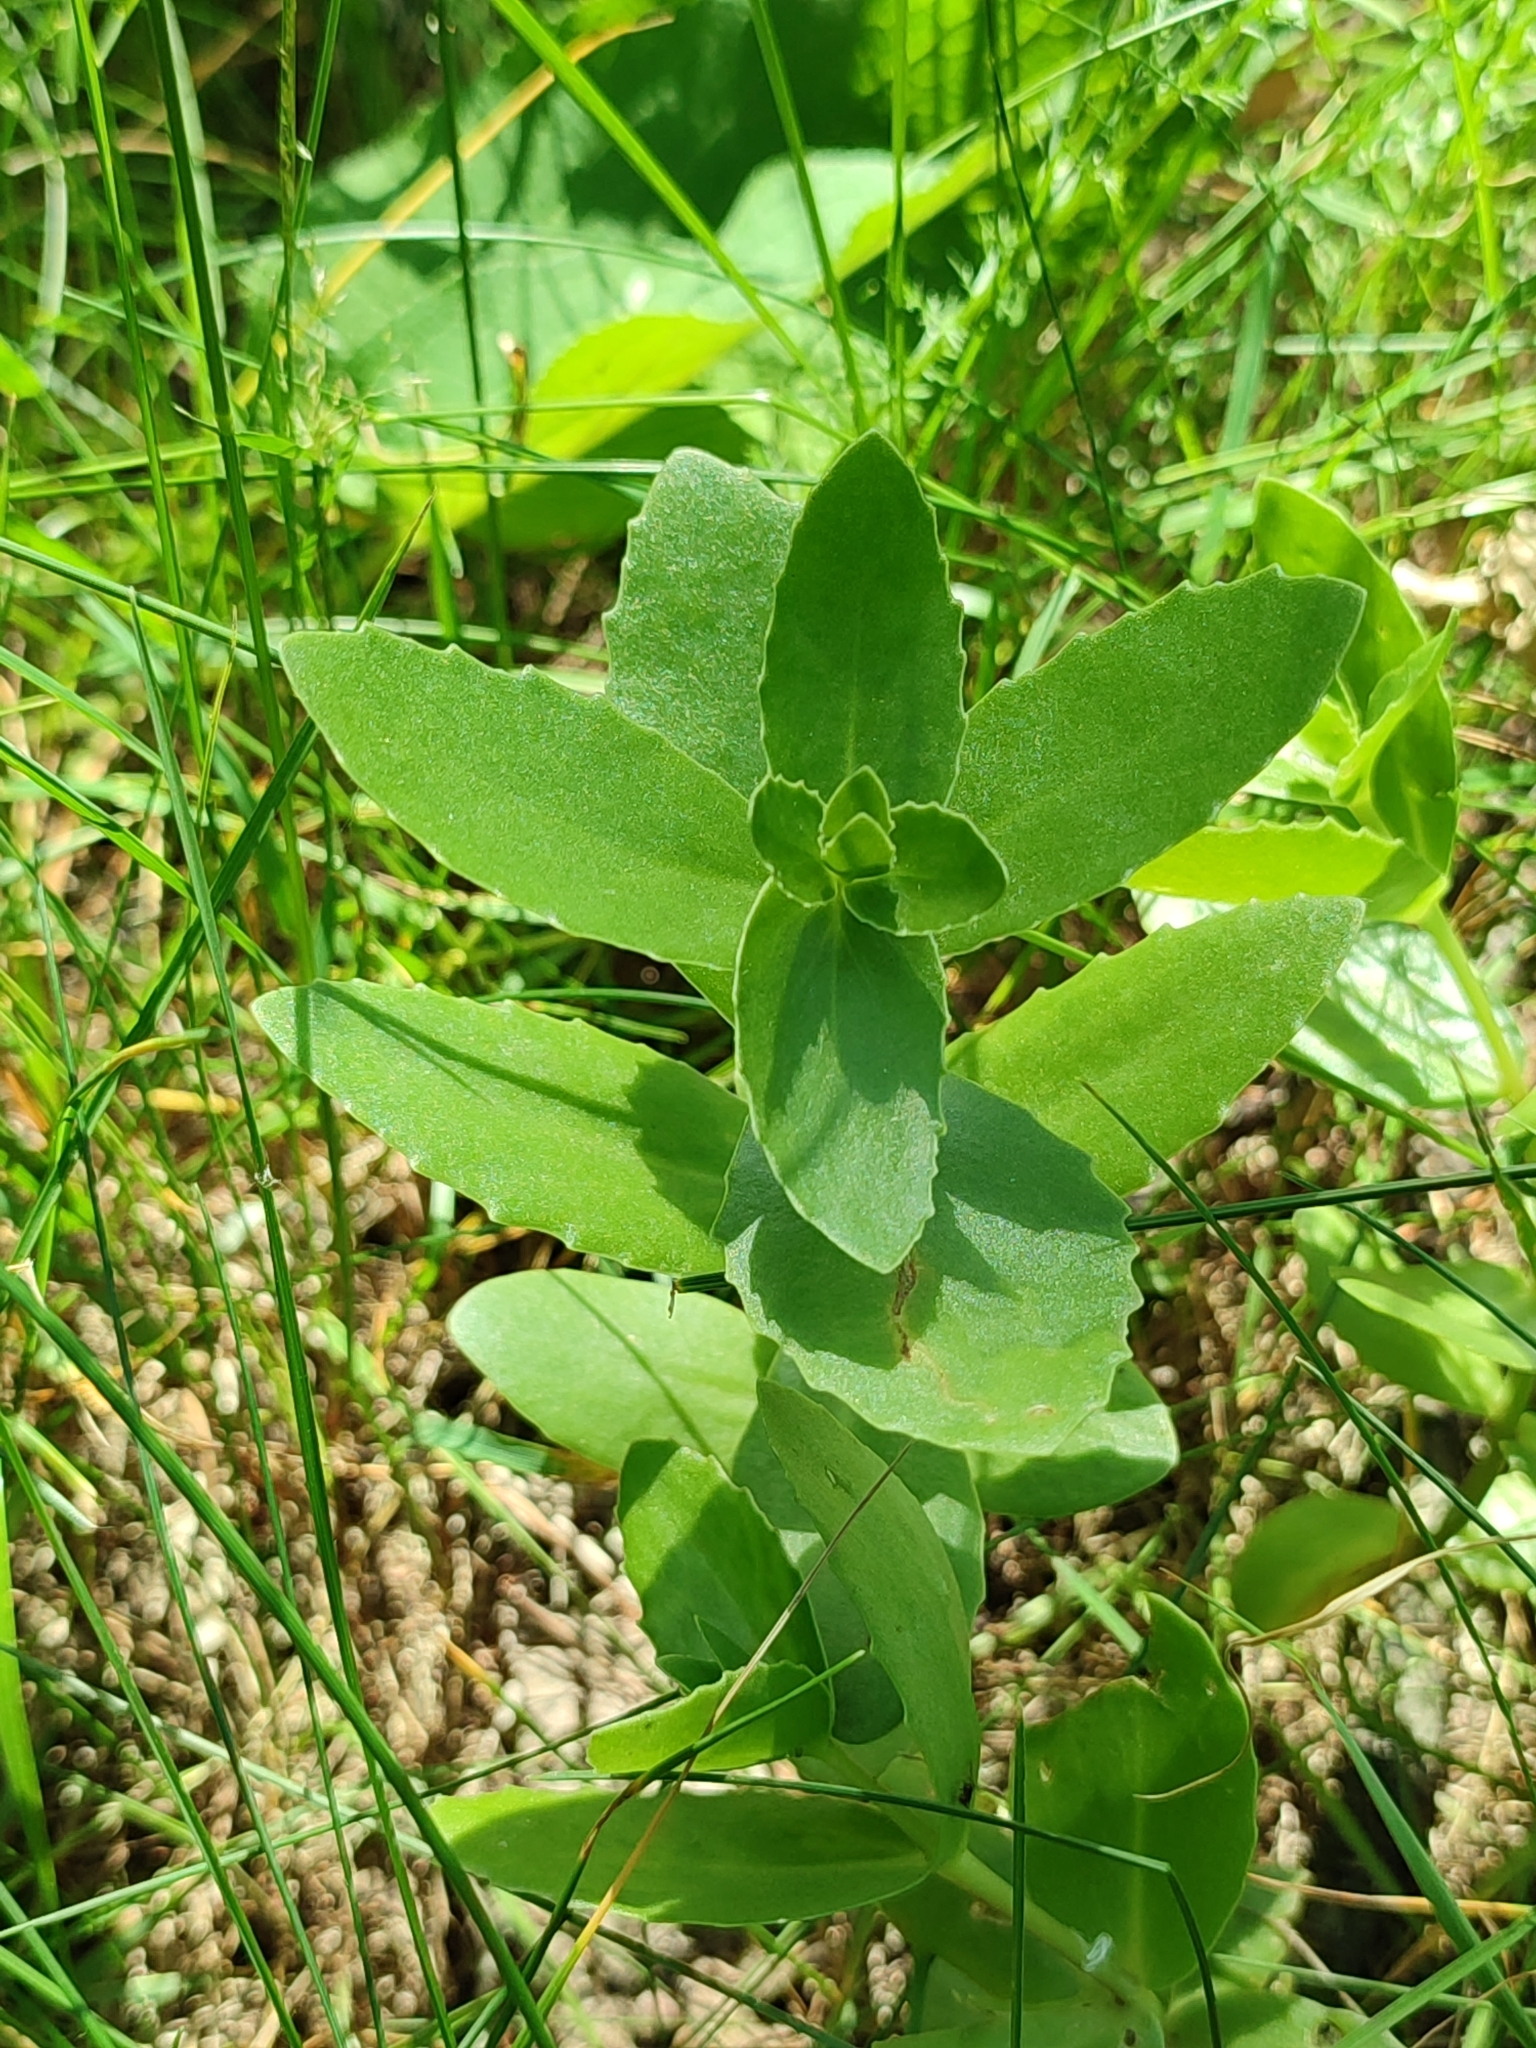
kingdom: Plantae
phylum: Tracheophyta
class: Magnoliopsida
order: Saxifragales
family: Crassulaceae
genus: Hylotelephium
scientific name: Hylotelephium maximum
